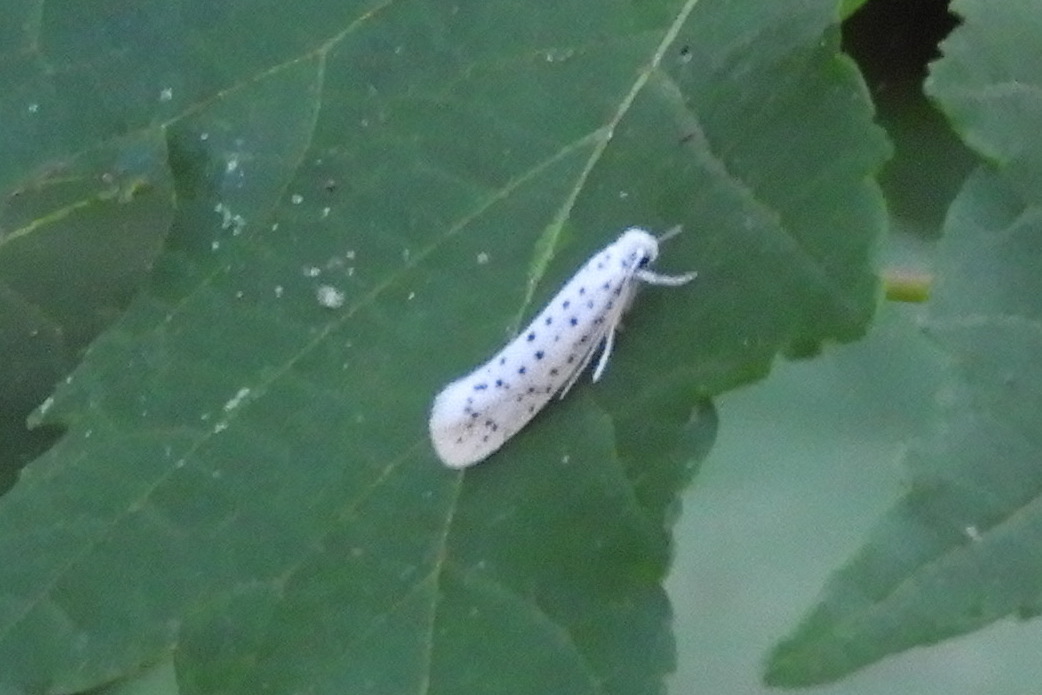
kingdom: Animalia
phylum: Arthropoda
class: Insecta
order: Lepidoptera
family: Yponomeutidae
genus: Yponomeuta
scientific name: Yponomeuta multipunctella
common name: American ermine moth
